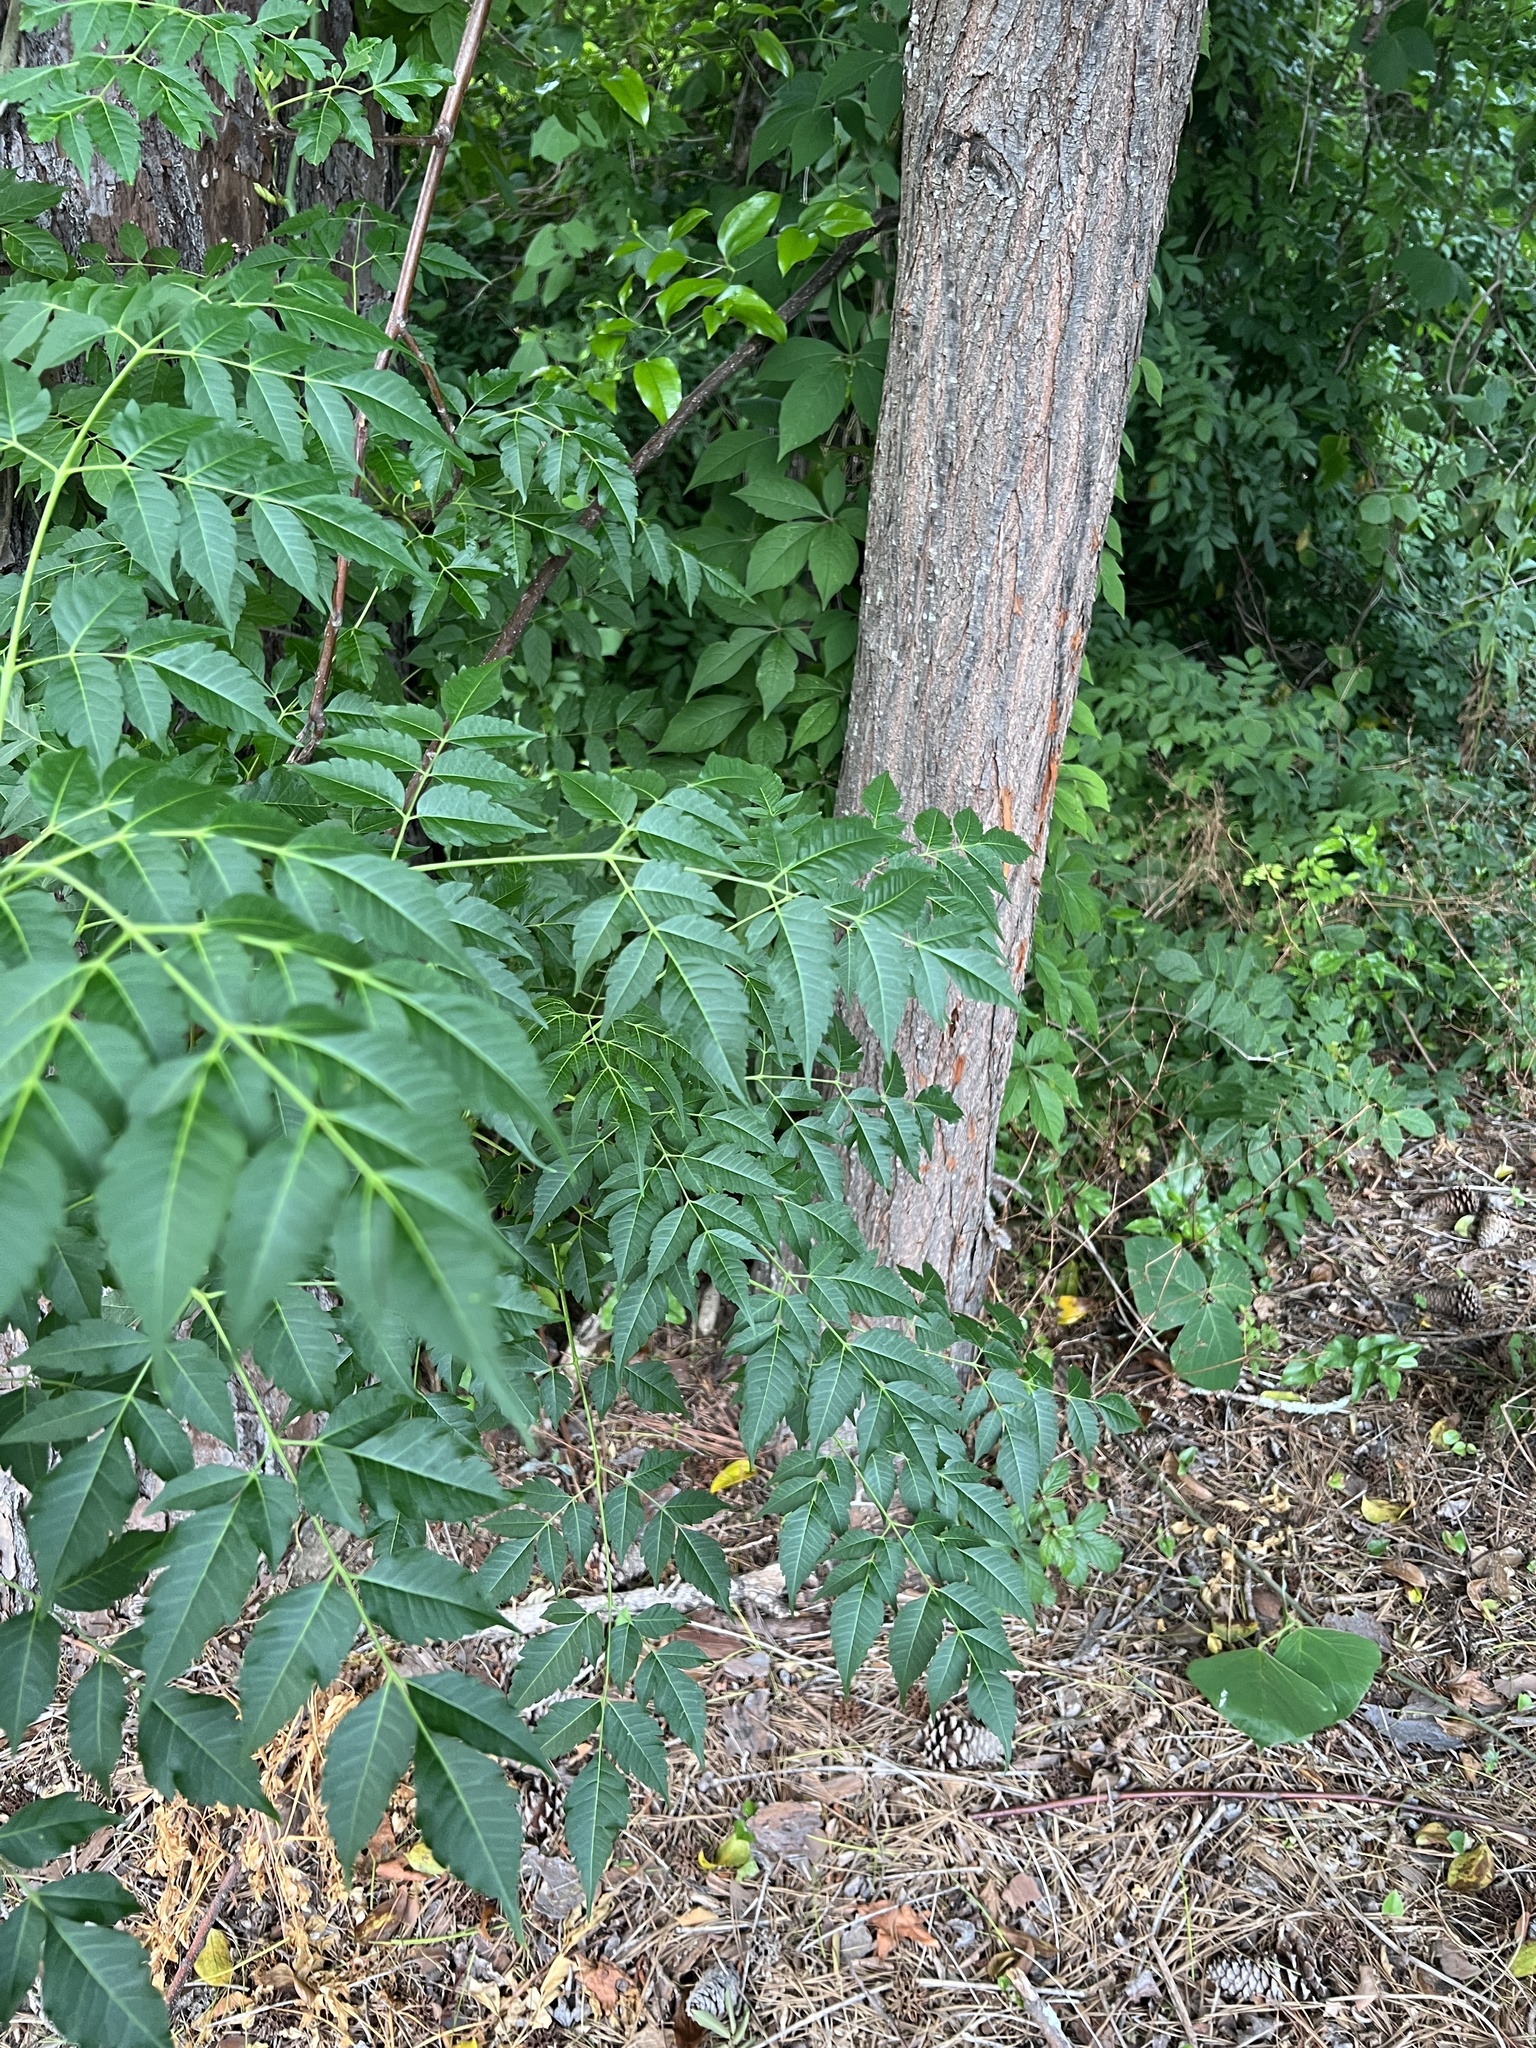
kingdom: Plantae
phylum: Tracheophyta
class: Magnoliopsida
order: Sapindales
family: Meliaceae
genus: Melia
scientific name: Melia azedarach
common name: Chinaberrytree
